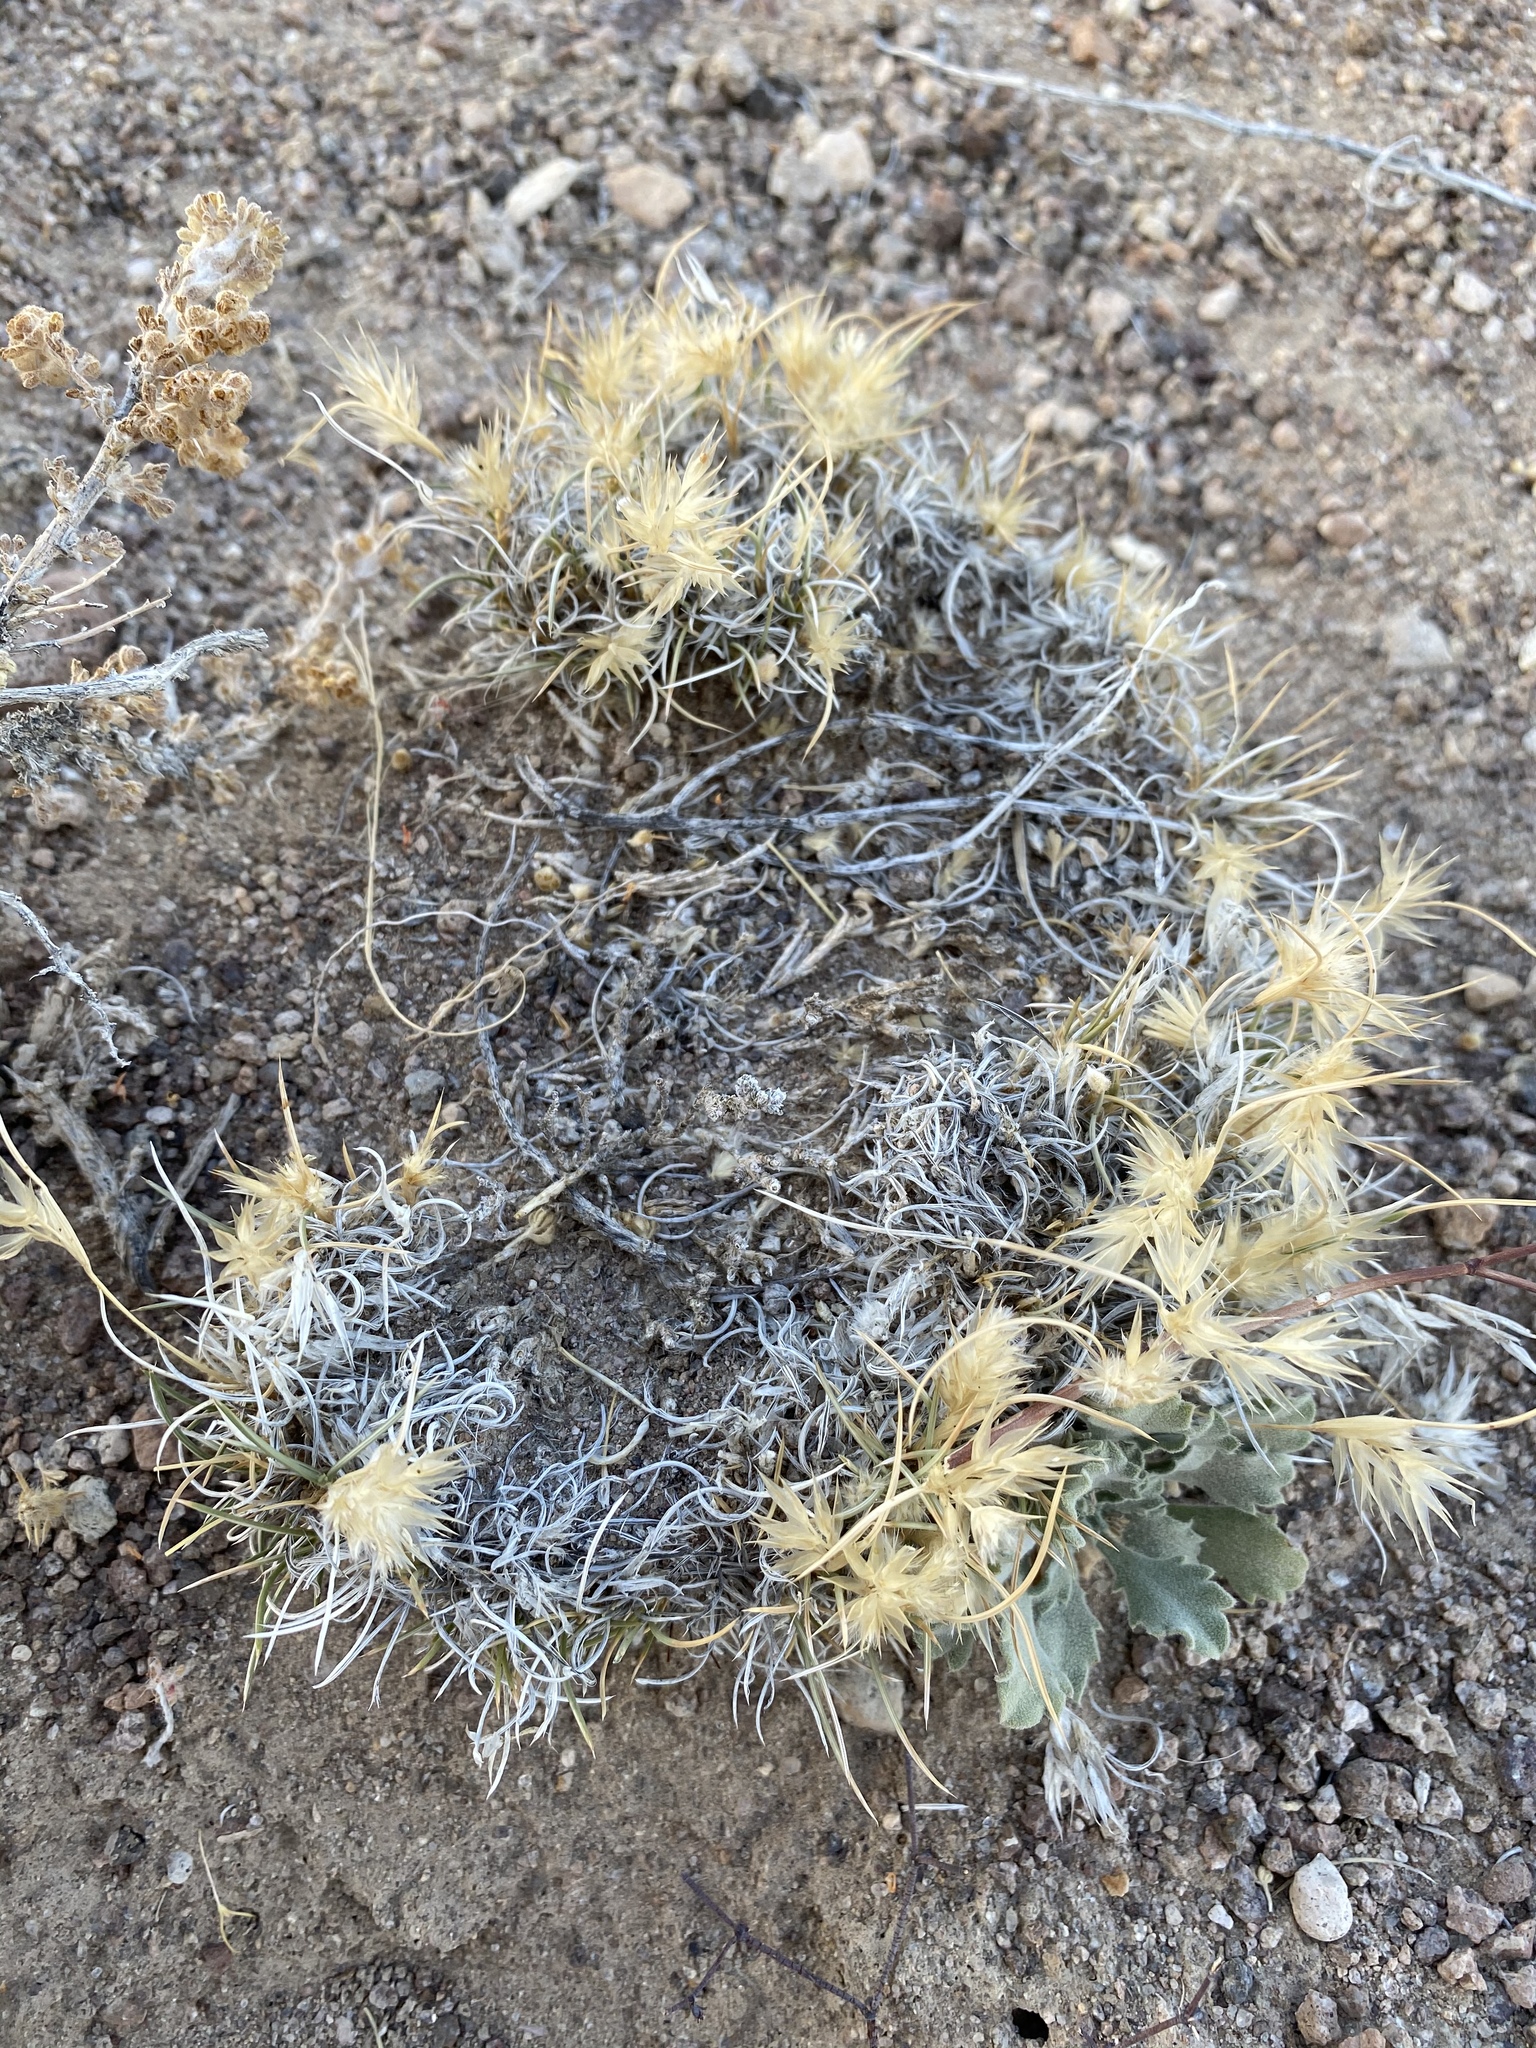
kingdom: Plantae
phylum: Tracheophyta
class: Liliopsida
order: Poales
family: Poaceae
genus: Blepharidachne
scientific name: Blepharidachne kingii
